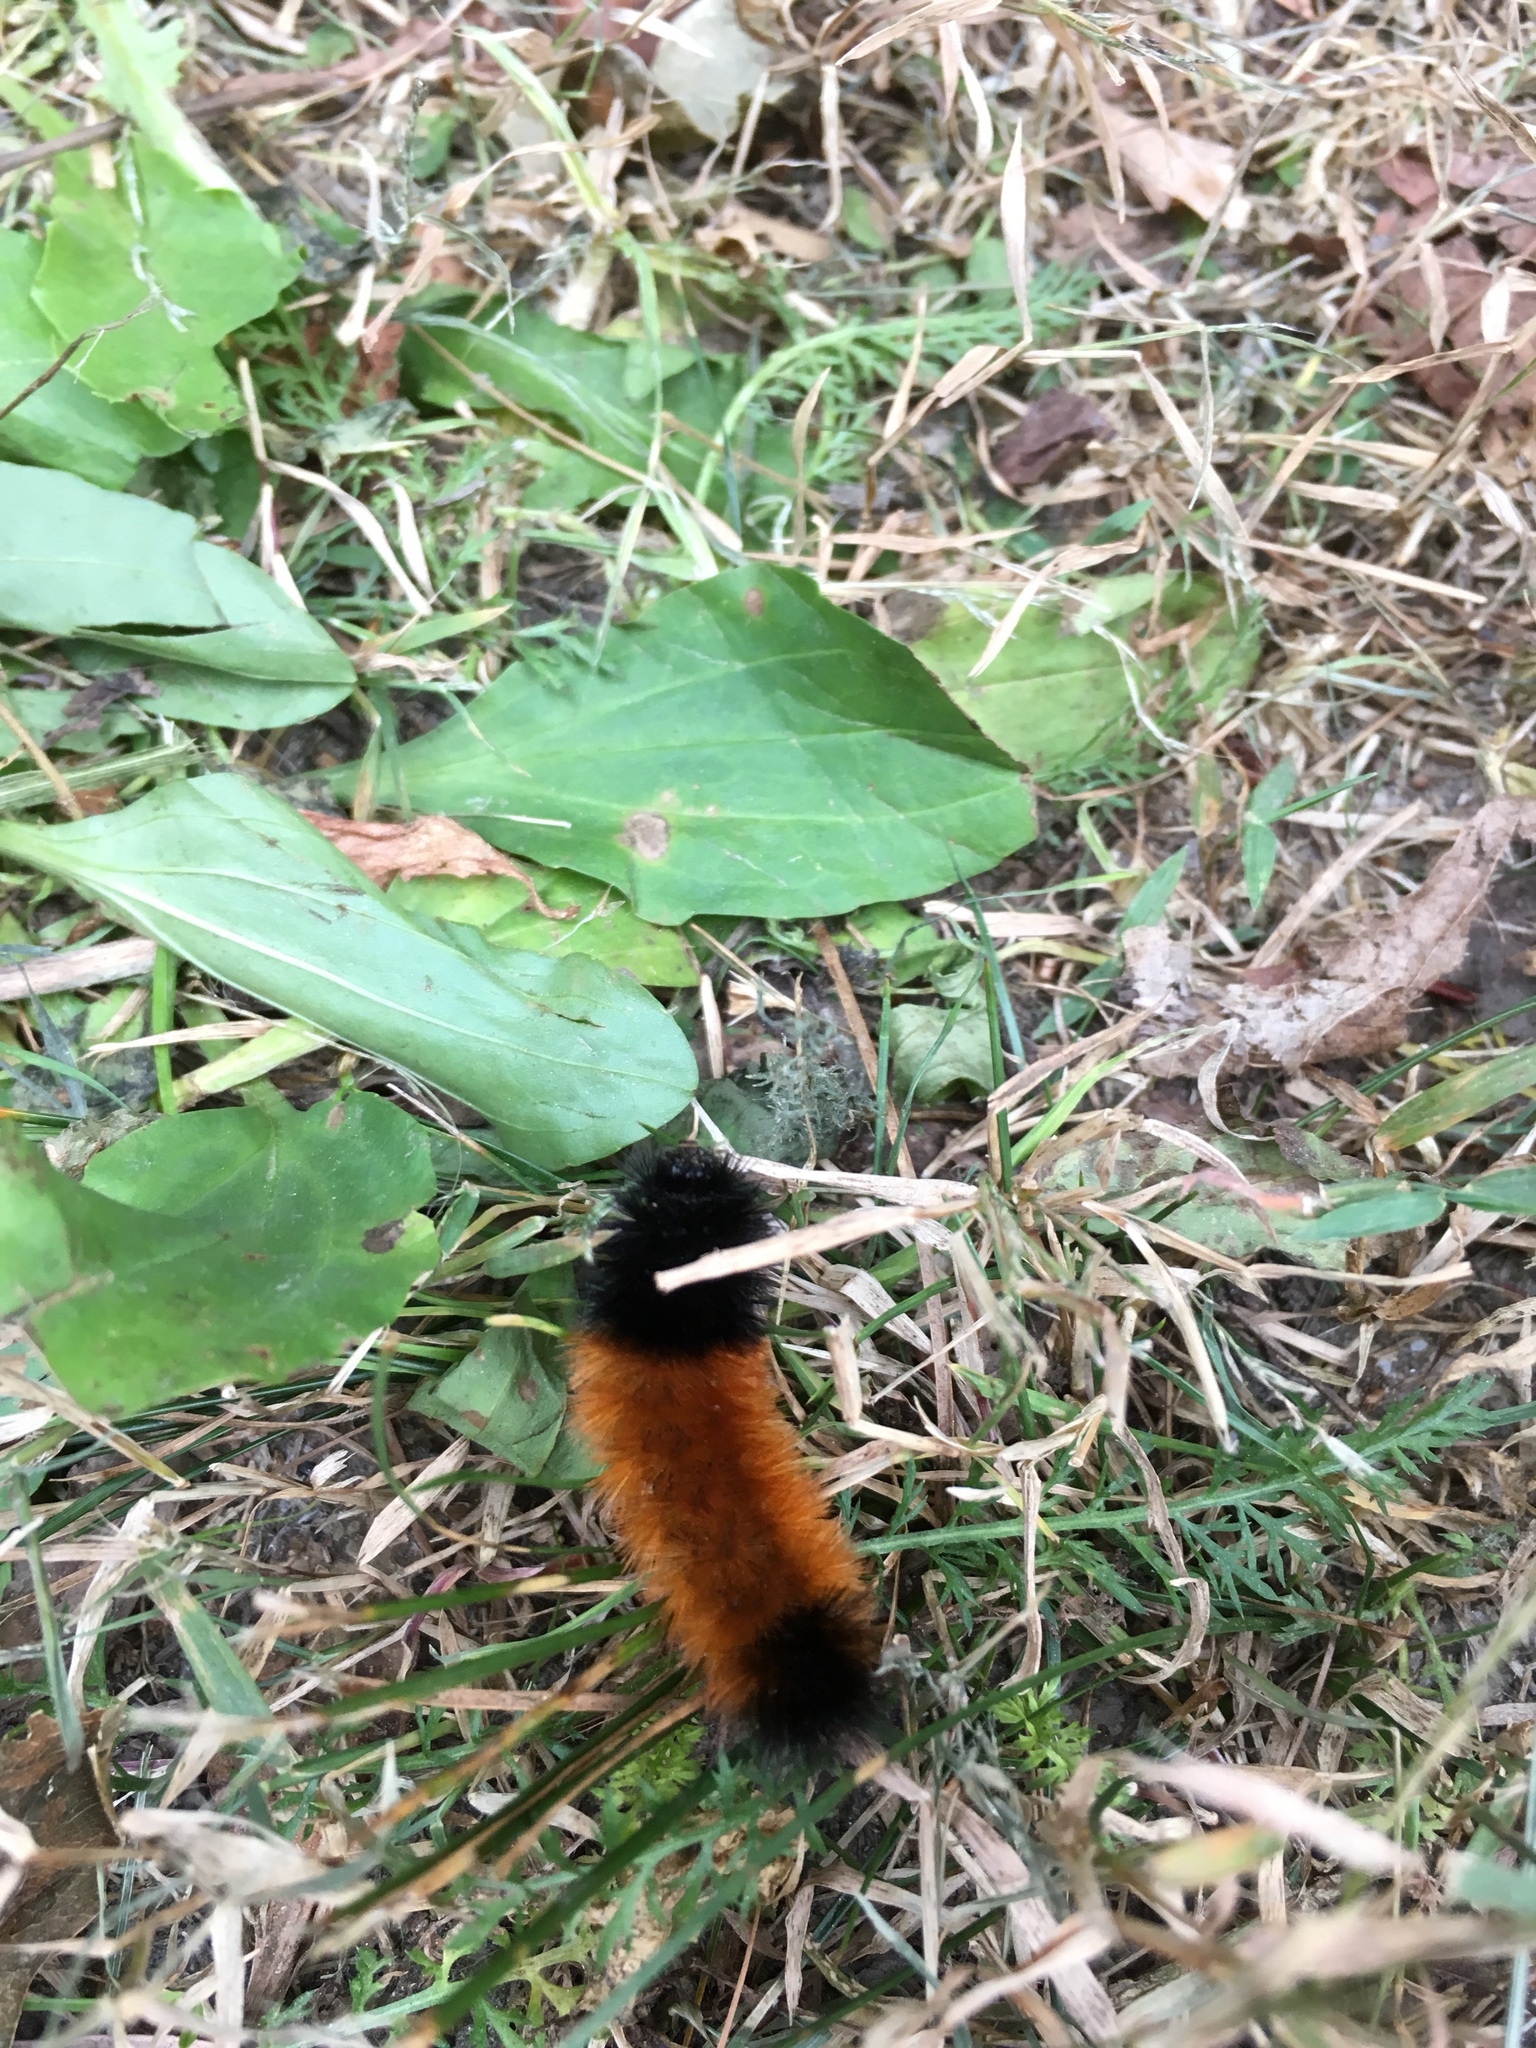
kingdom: Animalia
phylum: Arthropoda
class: Insecta
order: Lepidoptera
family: Erebidae
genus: Pyrrharctia
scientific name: Pyrrharctia isabella
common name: Isabella tiger moth
